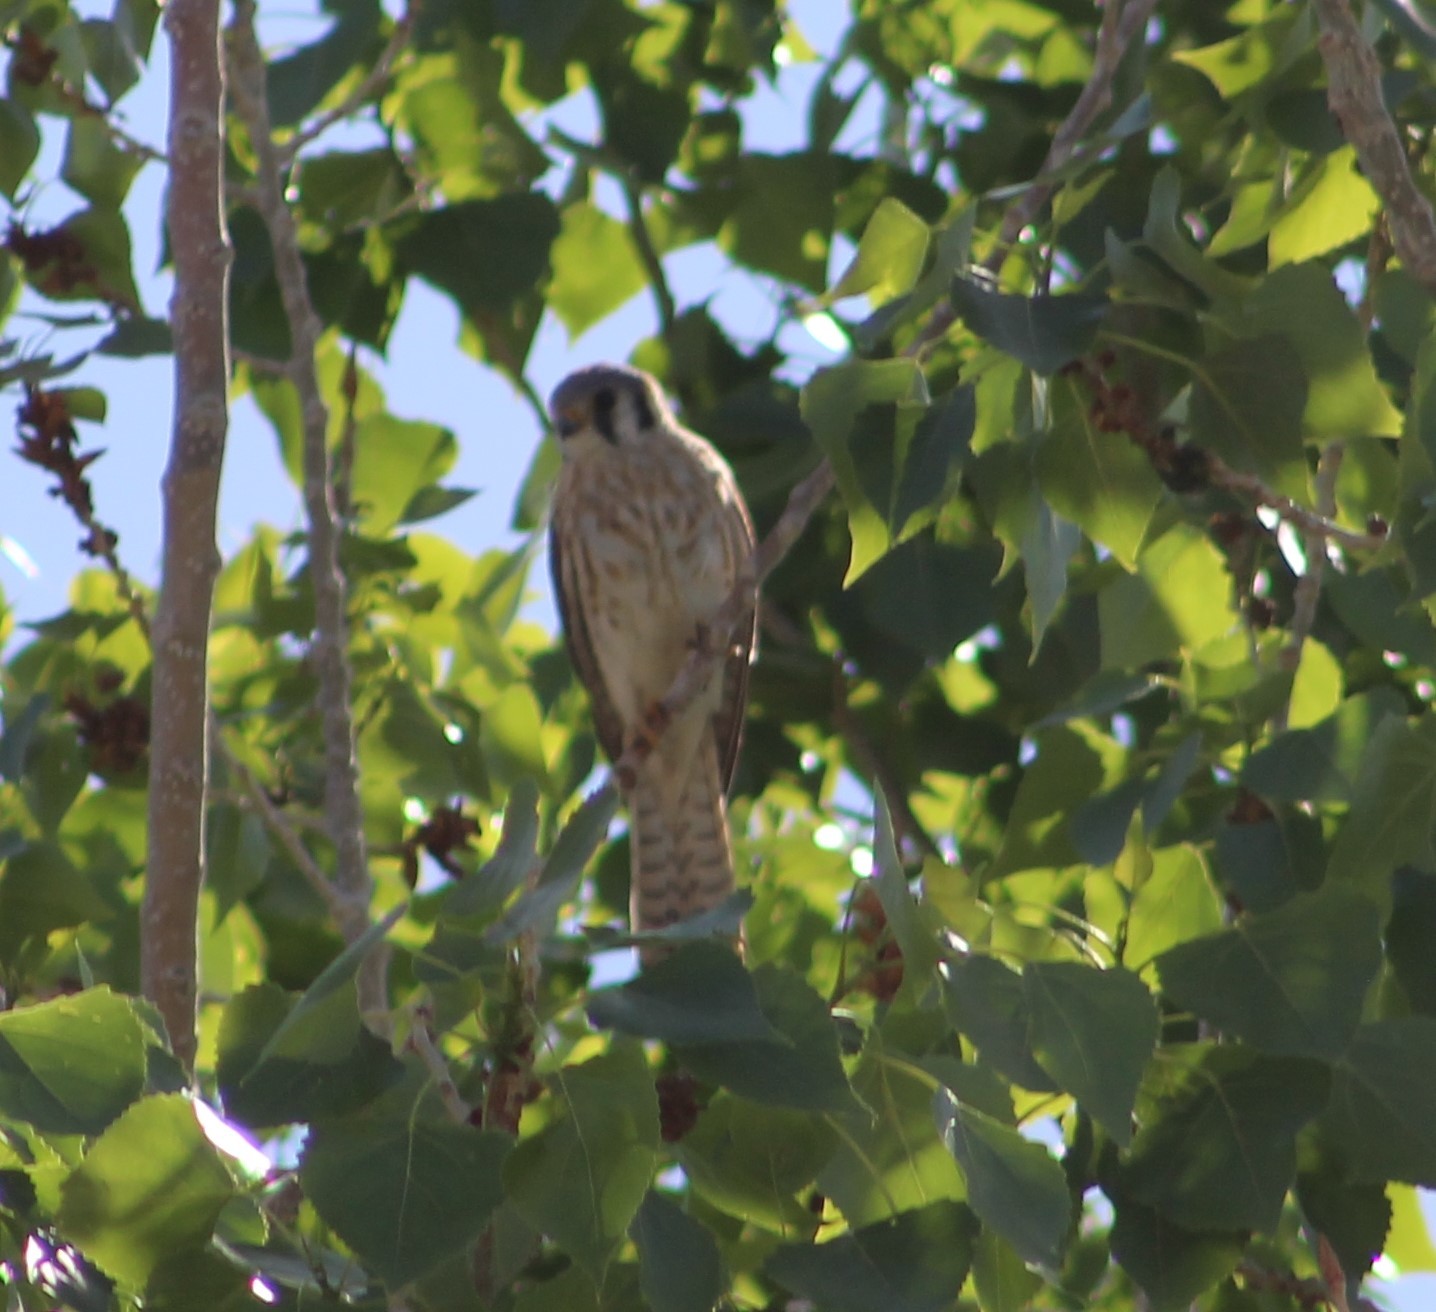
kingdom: Animalia
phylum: Chordata
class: Aves
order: Falconiformes
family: Falconidae
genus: Falco
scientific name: Falco sparverius
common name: American kestrel
